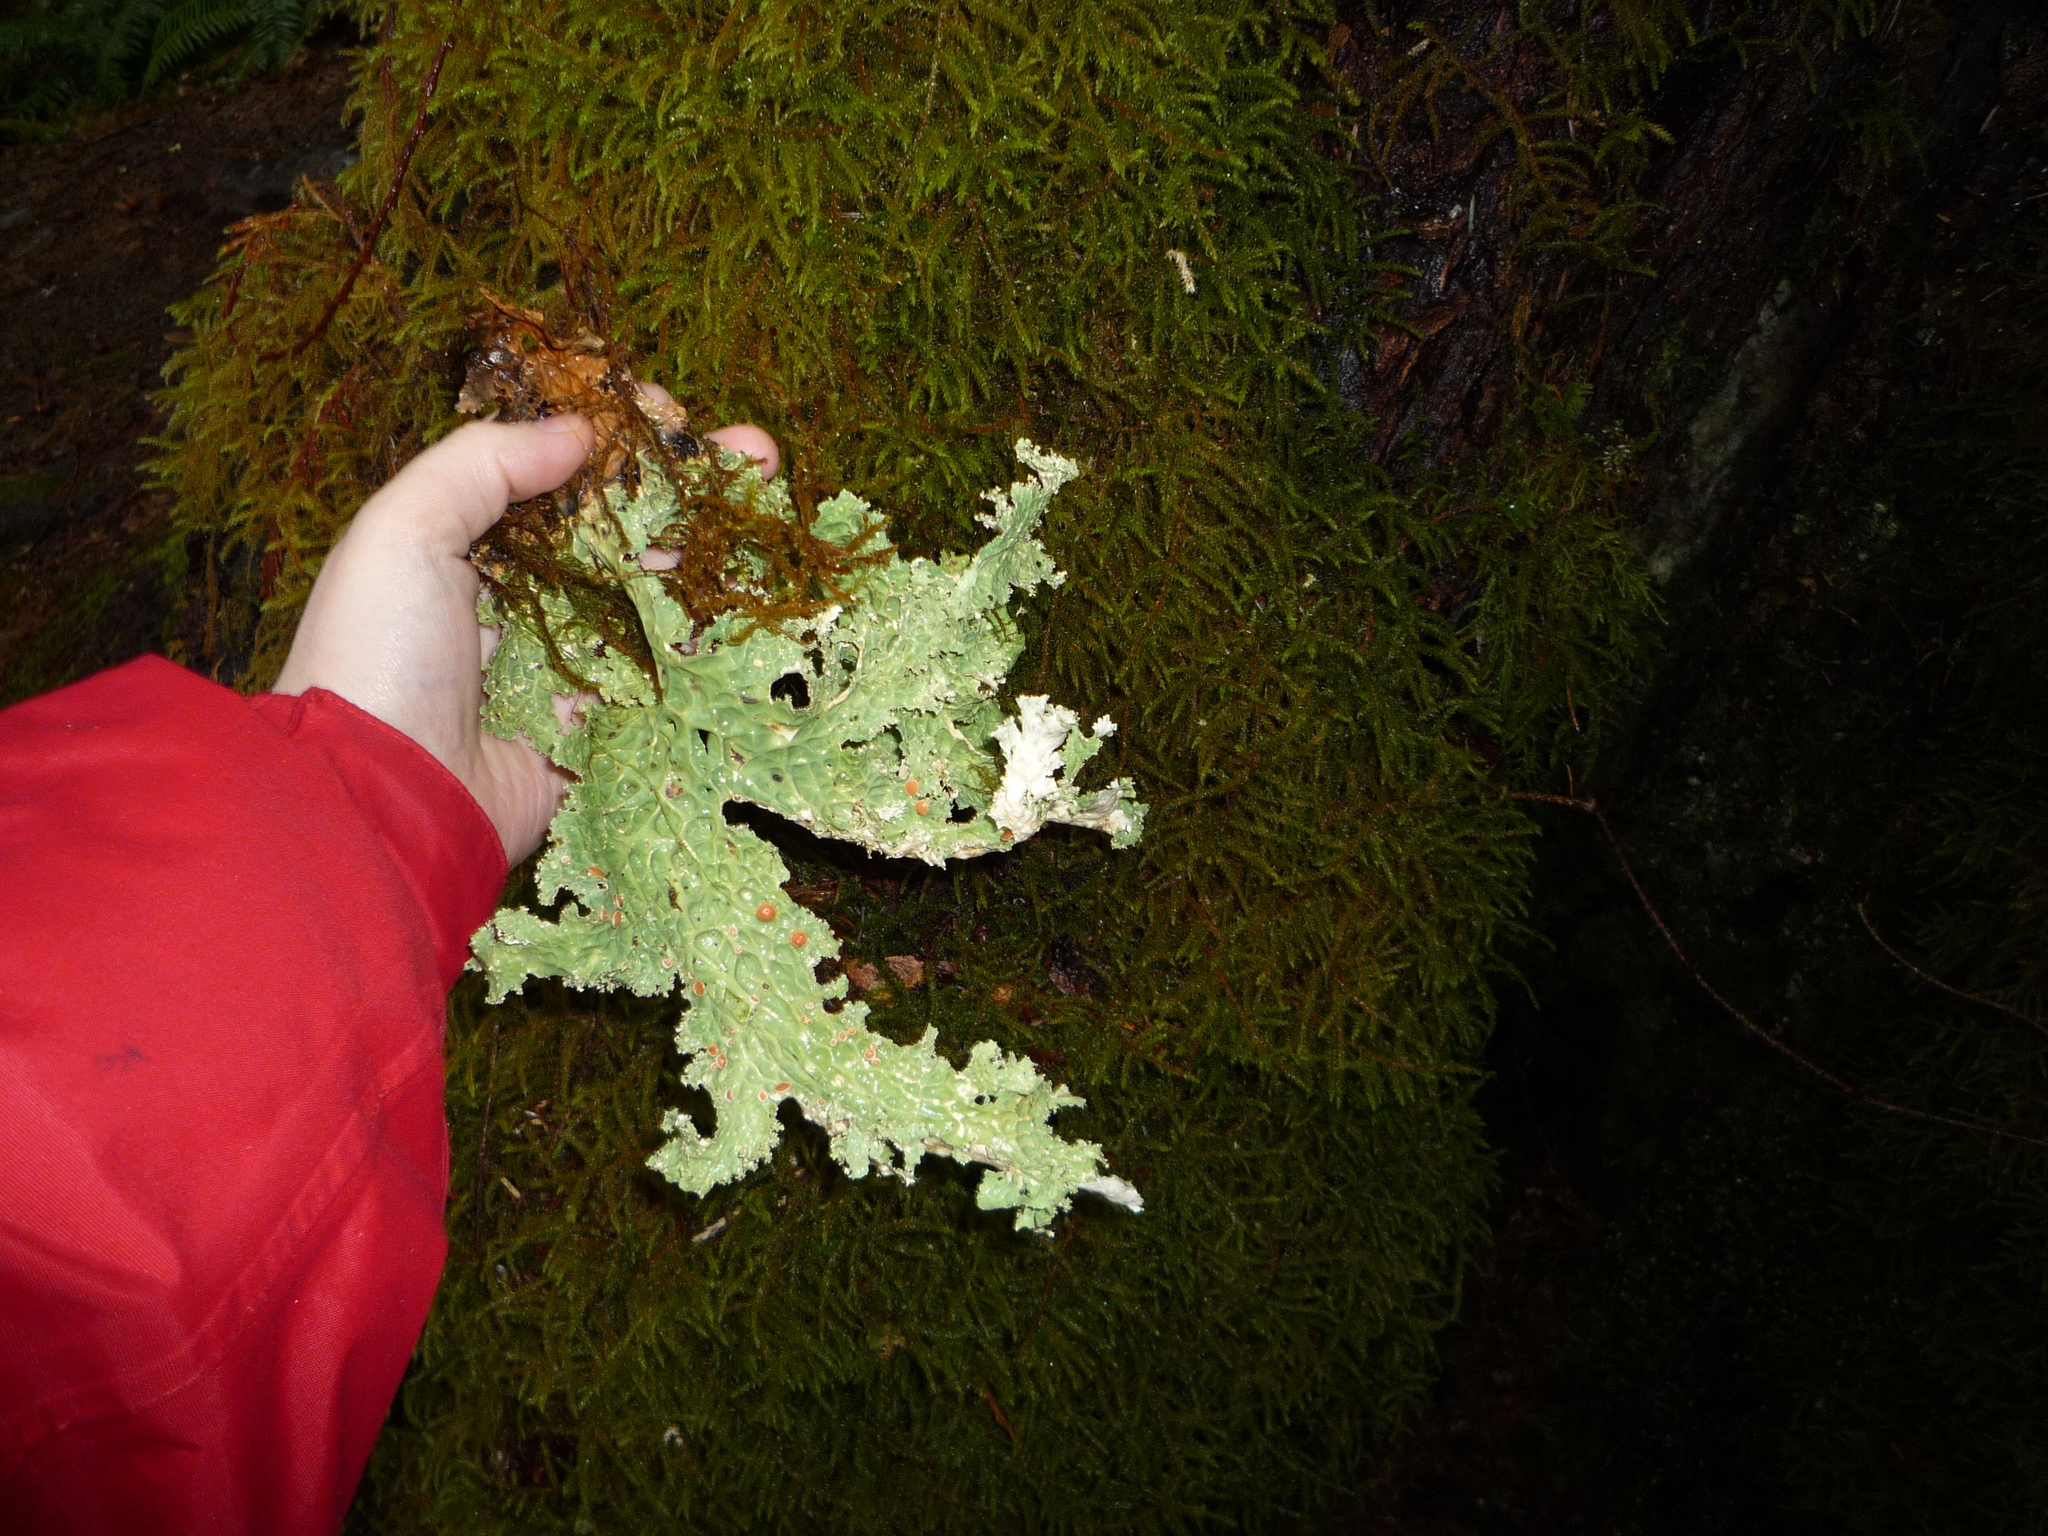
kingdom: Fungi
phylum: Ascomycota
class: Lecanoromycetes
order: Peltigerales
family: Lobariaceae
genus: Lobaria
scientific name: Lobaria oregana
